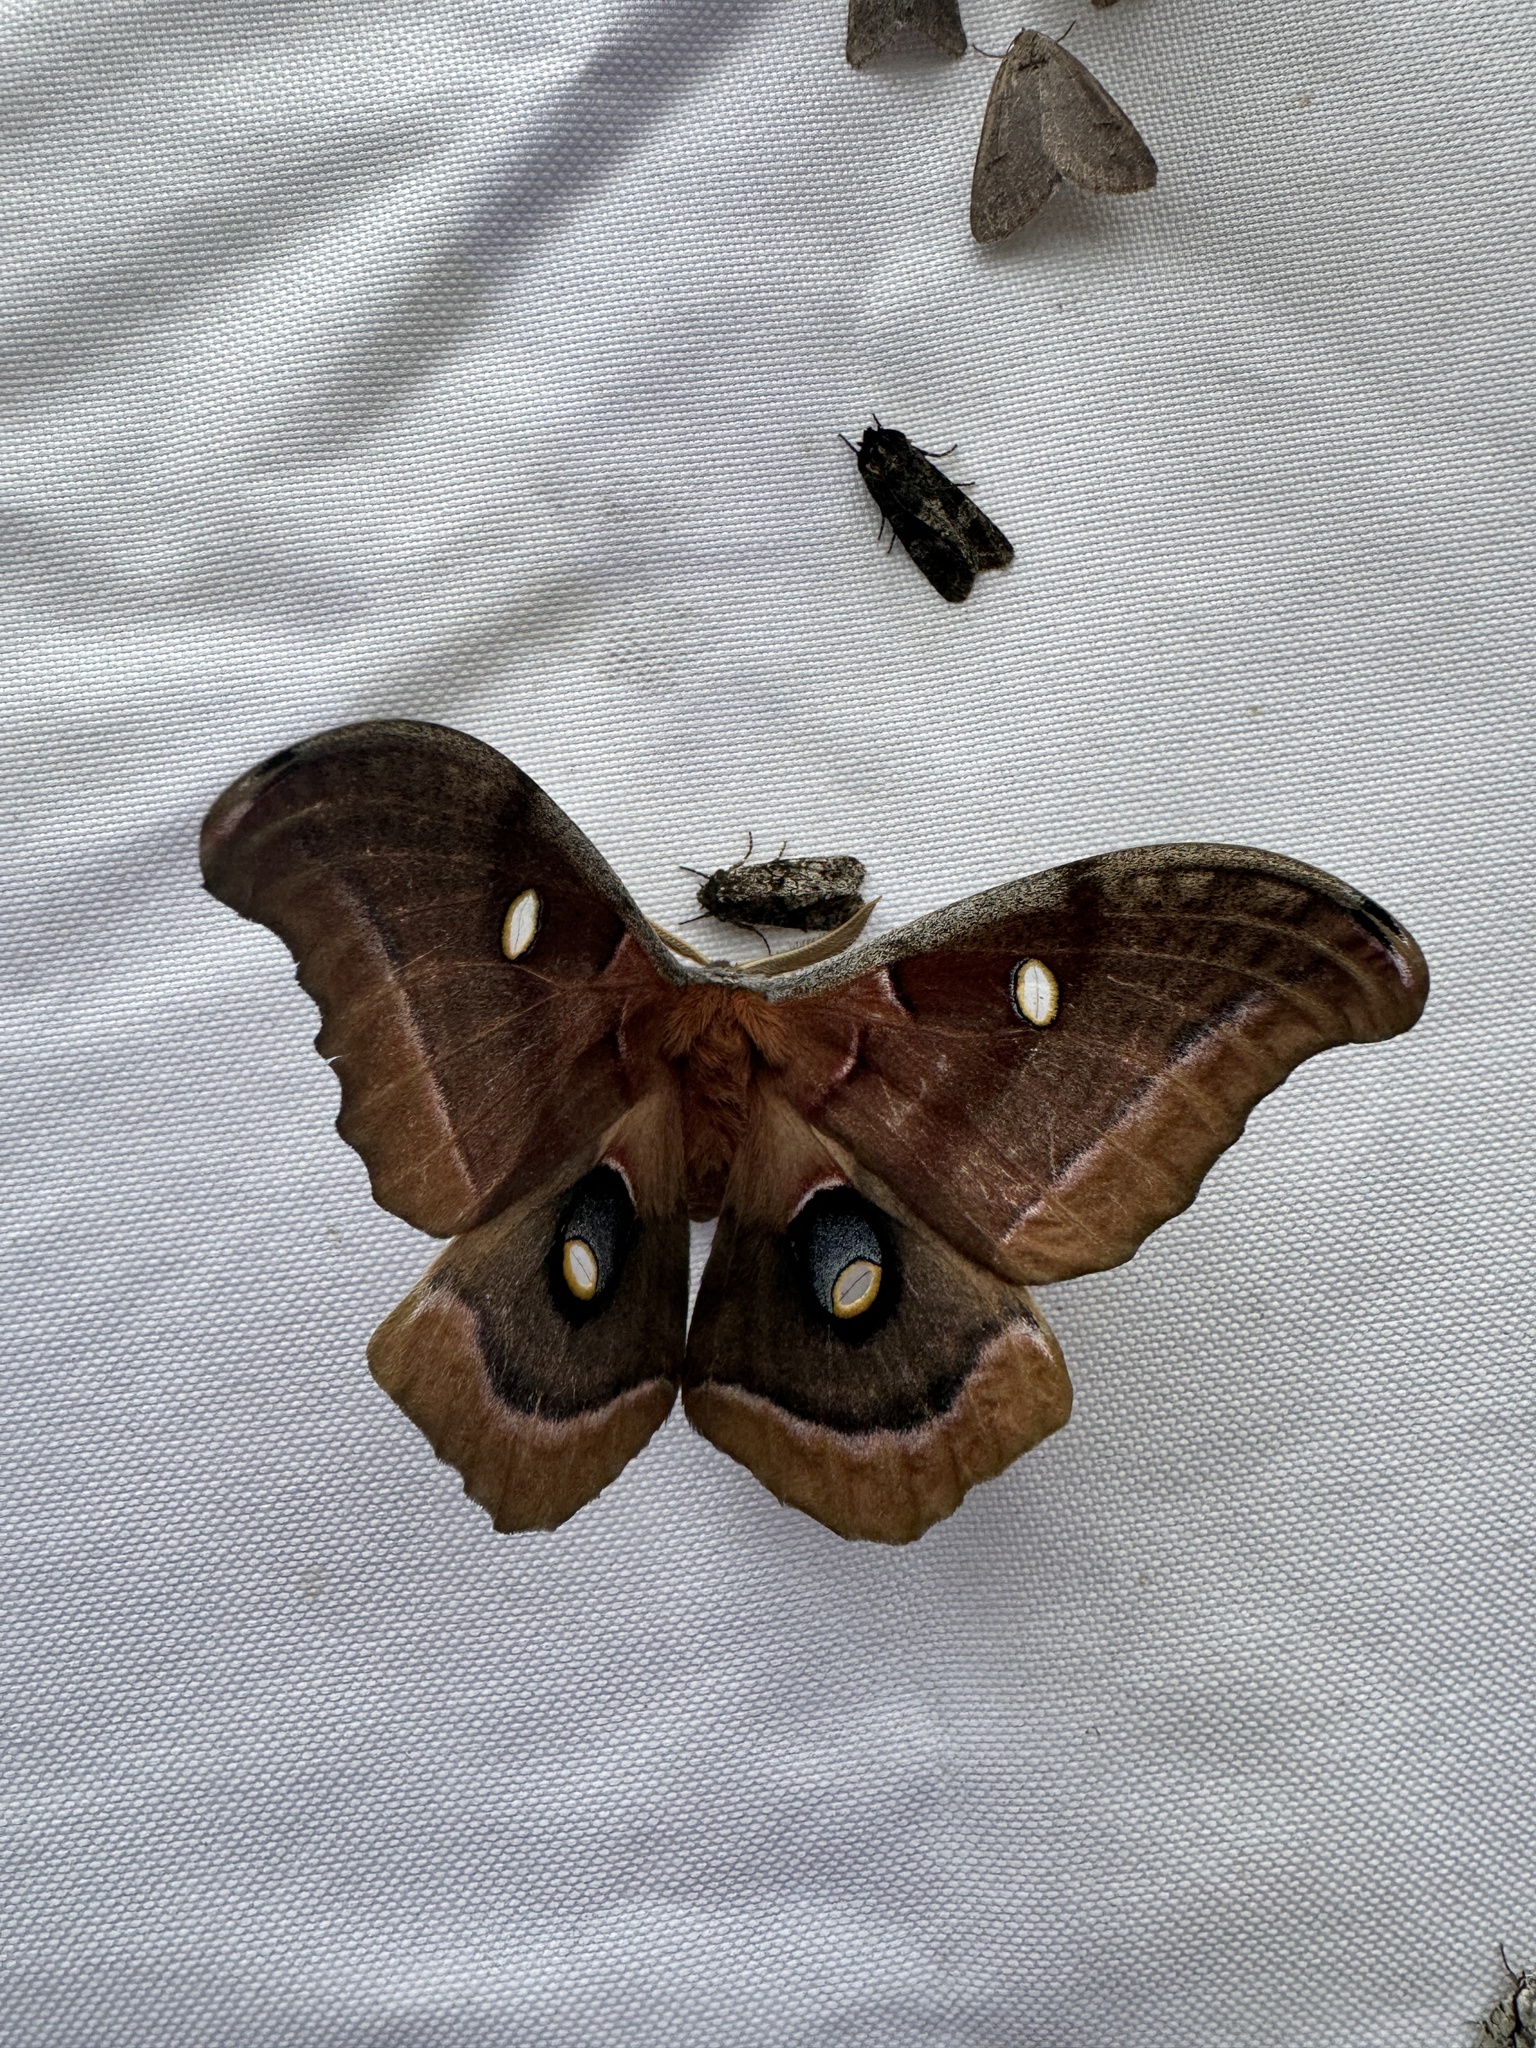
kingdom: Animalia
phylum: Arthropoda
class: Insecta
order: Lepidoptera
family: Saturniidae
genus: Antheraea
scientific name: Antheraea polyphemus
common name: Polyphemus moth
